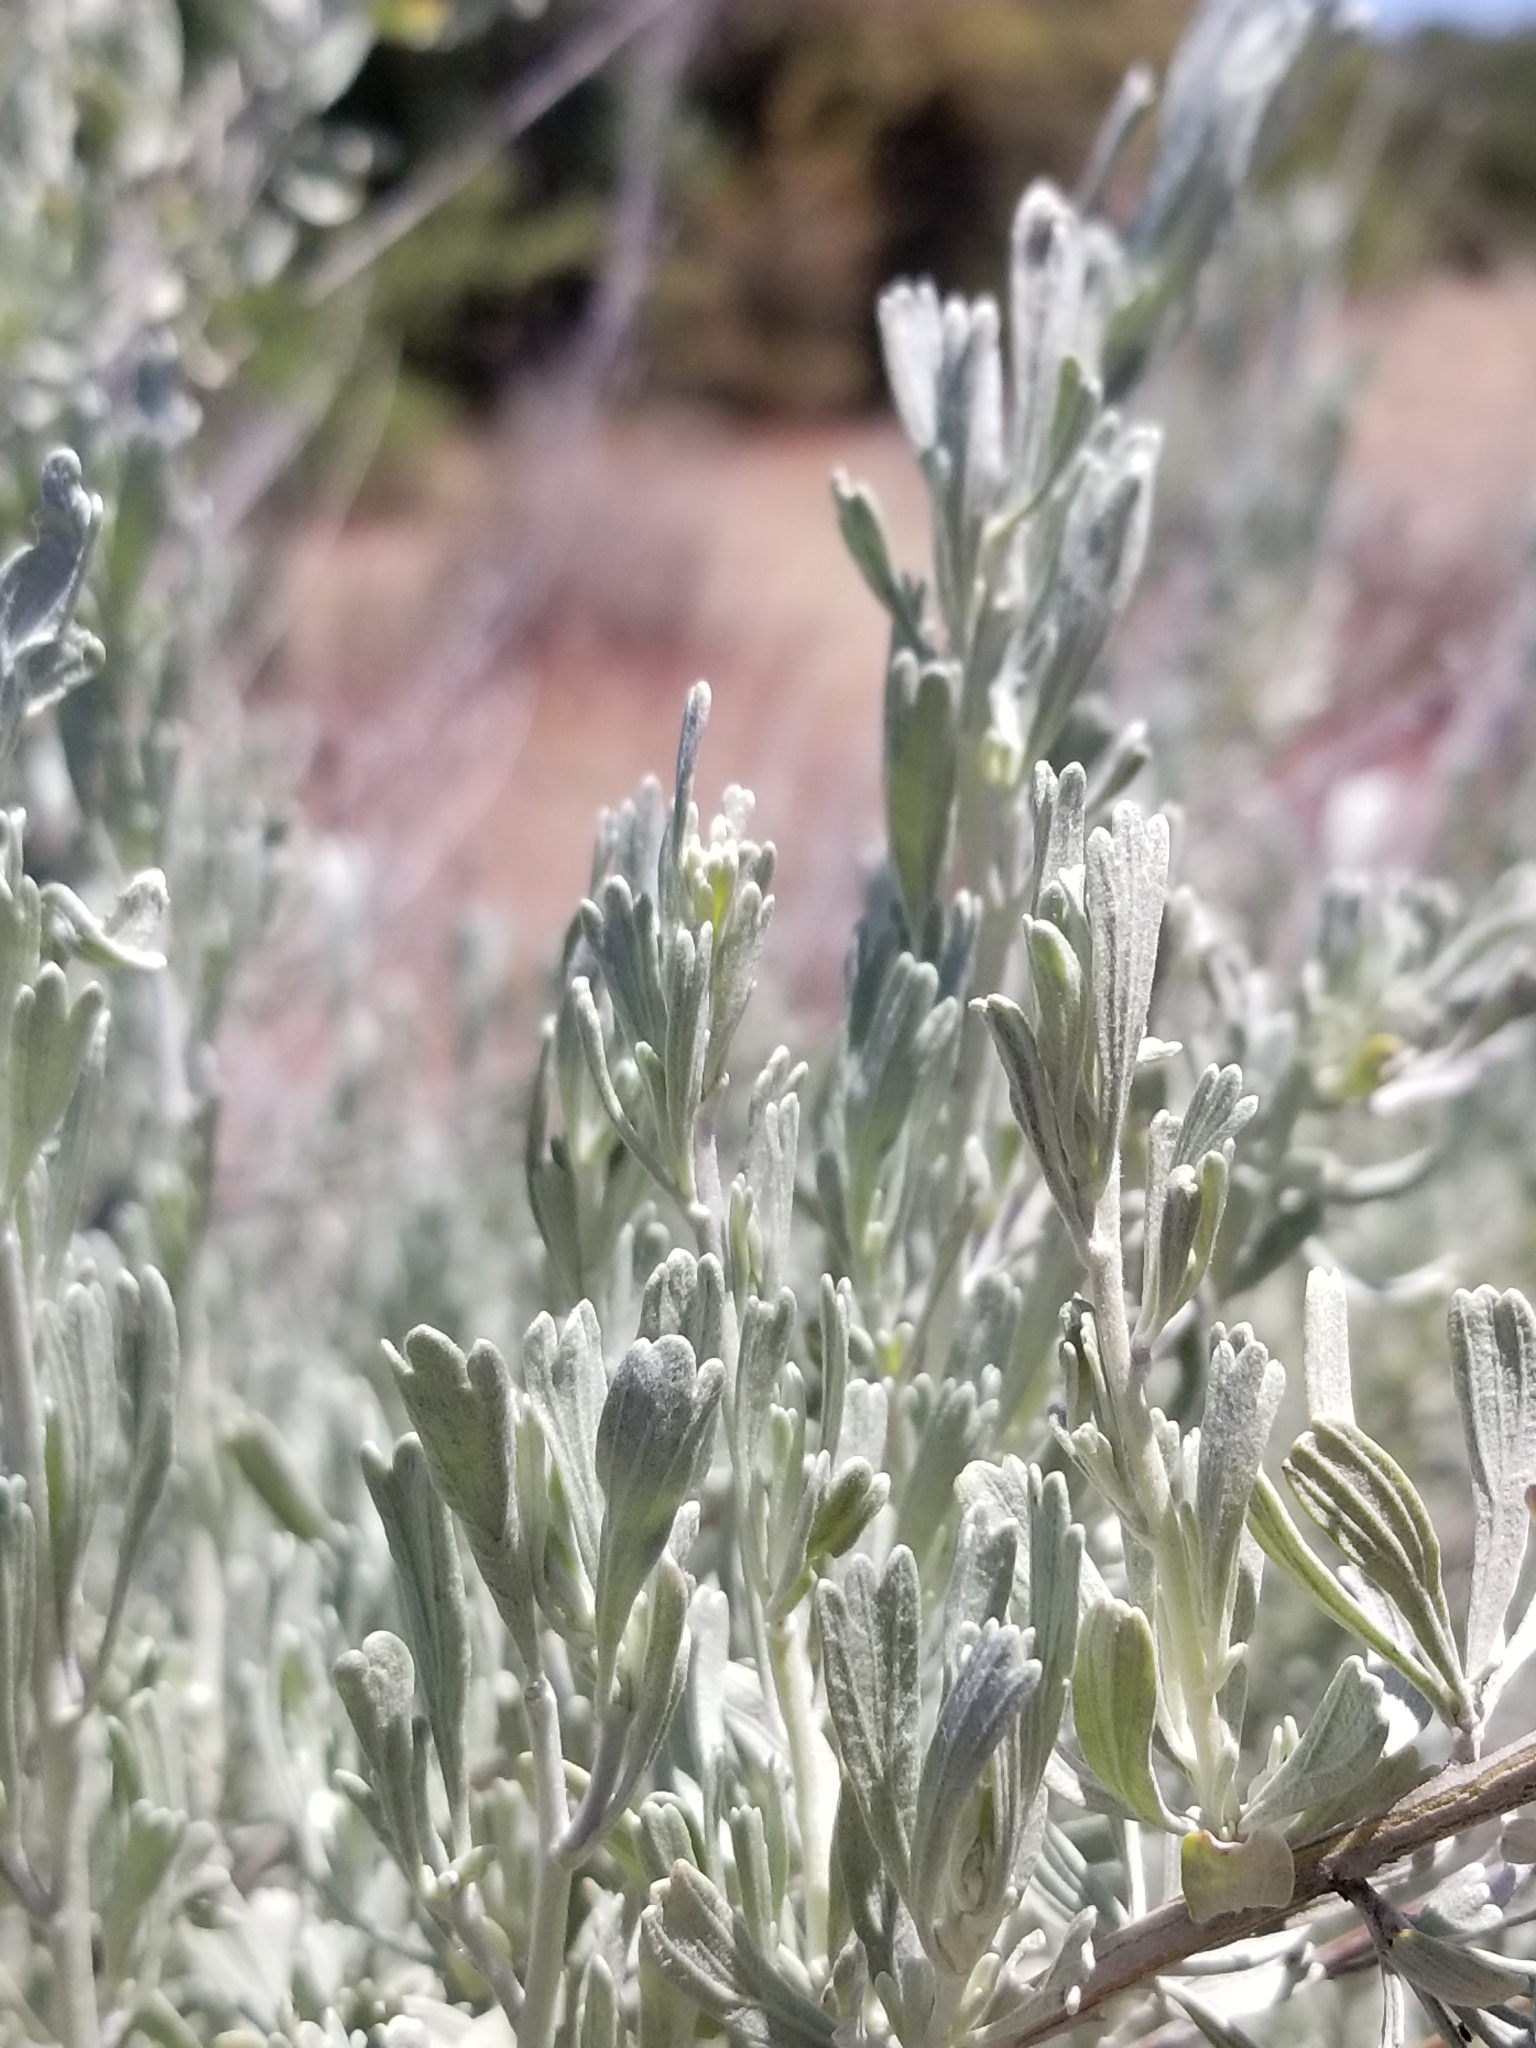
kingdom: Plantae
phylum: Tracheophyta
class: Magnoliopsida
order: Asterales
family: Asteraceae
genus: Artemisia
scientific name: Artemisia tridentata
